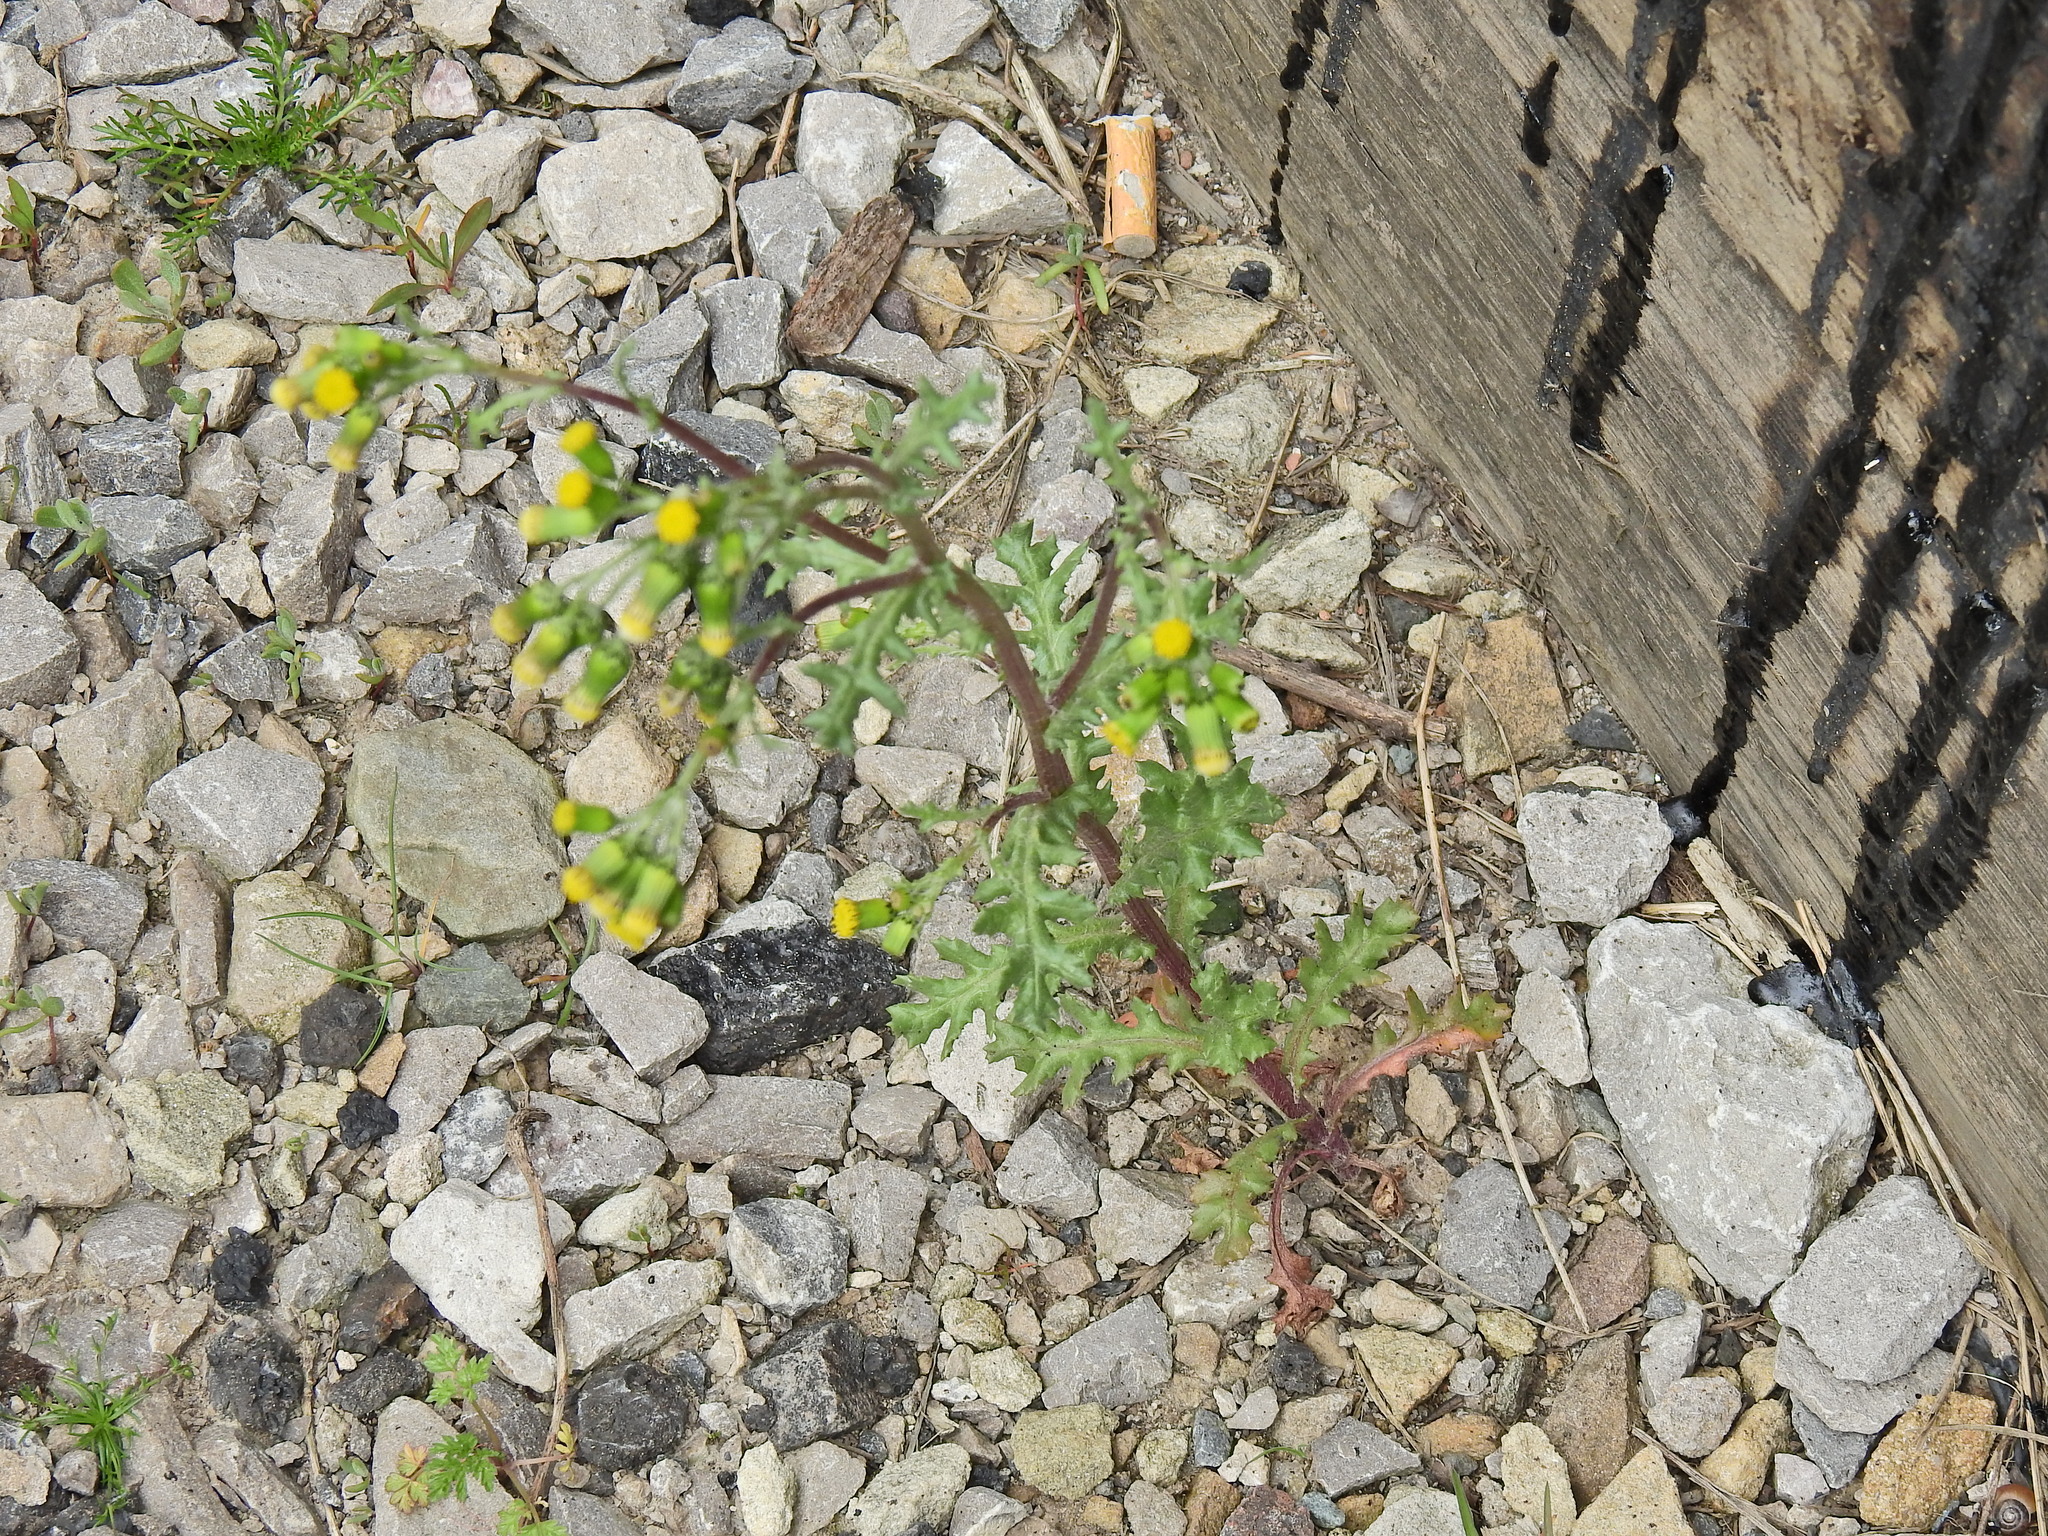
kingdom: Plantae
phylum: Tracheophyta
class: Magnoliopsida
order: Asterales
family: Asteraceae
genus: Senecio
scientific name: Senecio vulgaris
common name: Old-man-in-the-spring
